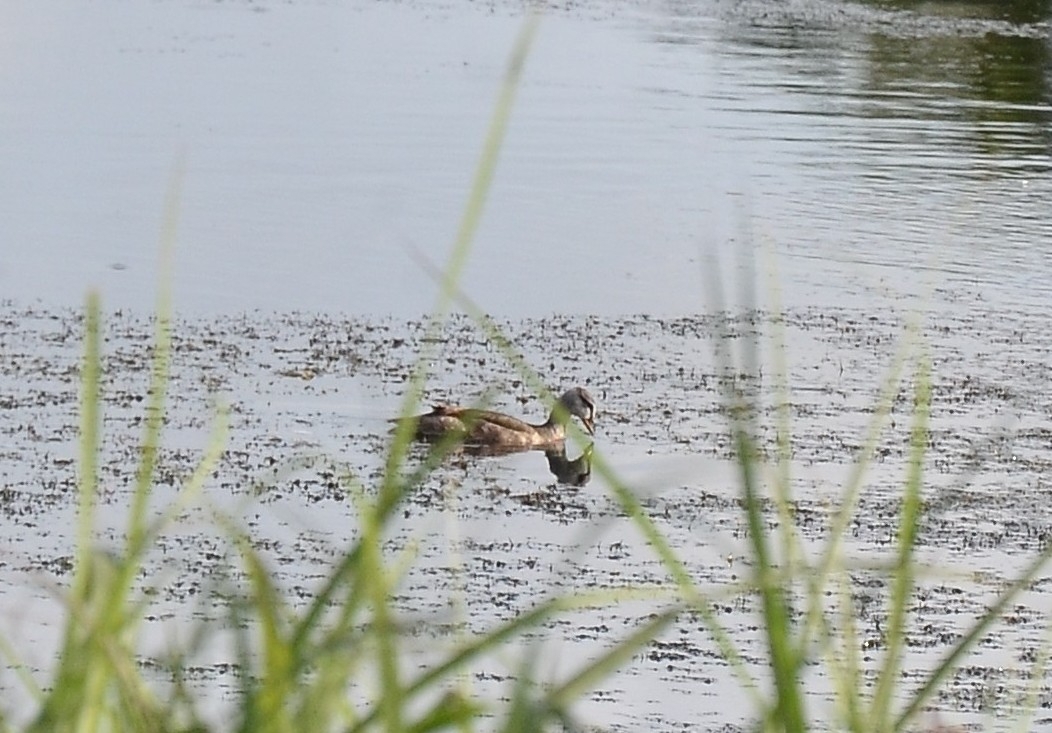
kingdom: Animalia
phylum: Chordata
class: Aves
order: Anseriformes
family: Anatidae
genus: Nettapus
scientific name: Nettapus coromandelianus
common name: Cotton pygmy-goose
